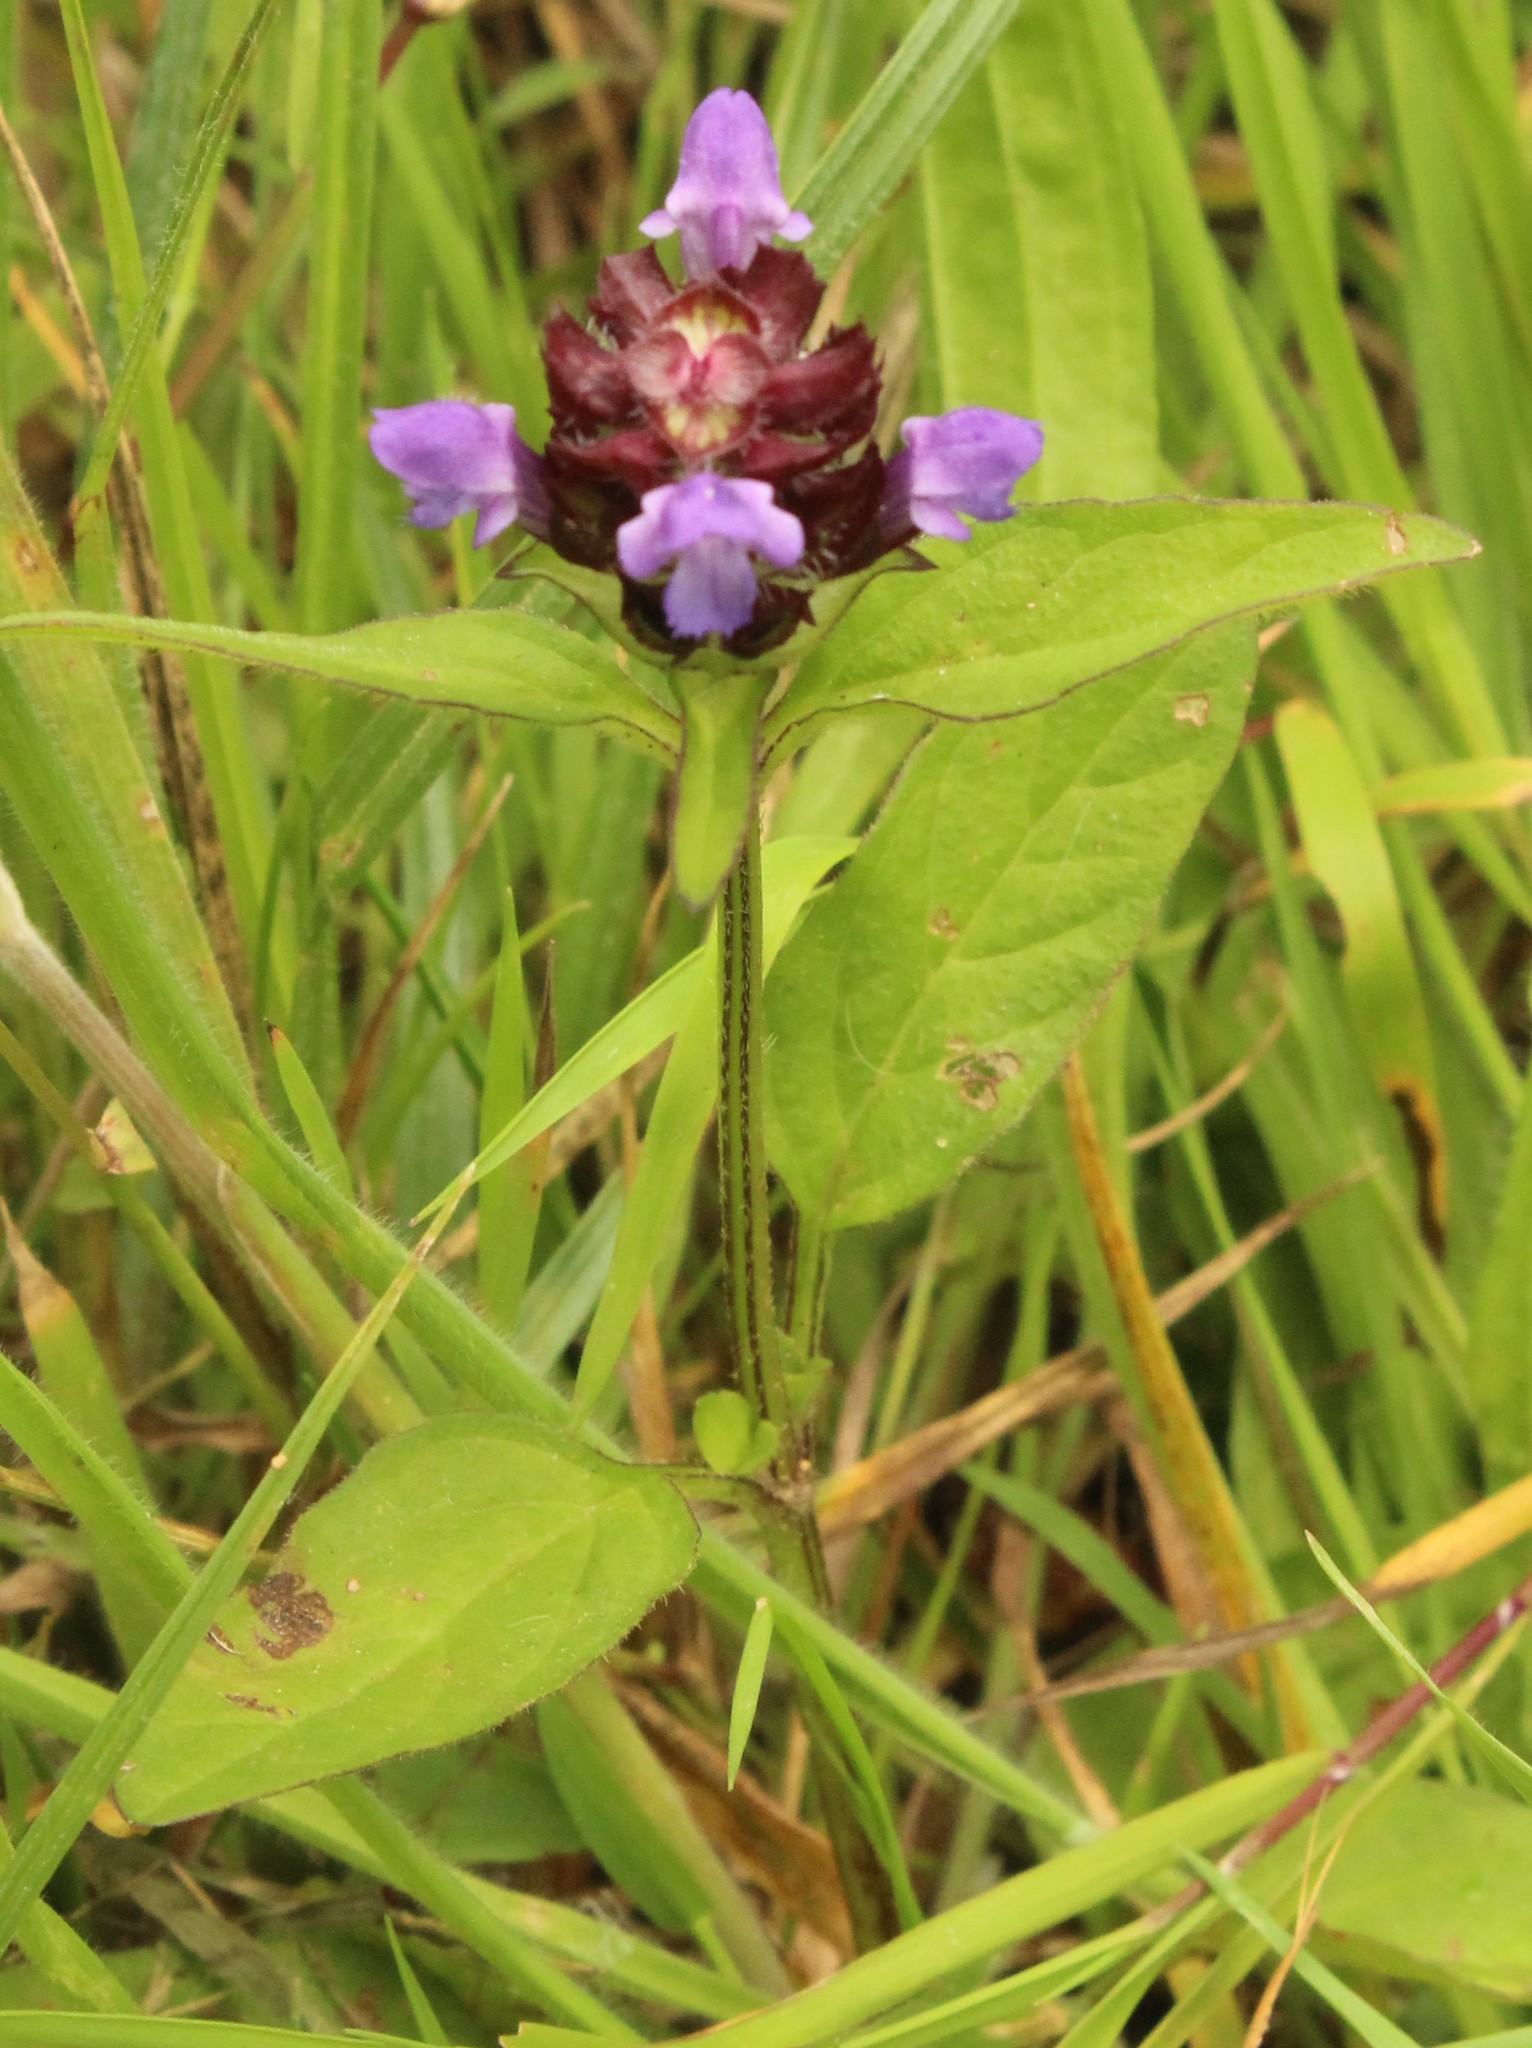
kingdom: Plantae
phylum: Tracheophyta
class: Magnoliopsida
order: Lamiales
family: Lamiaceae
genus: Prunella
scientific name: Prunella vulgaris
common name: Heal-all
